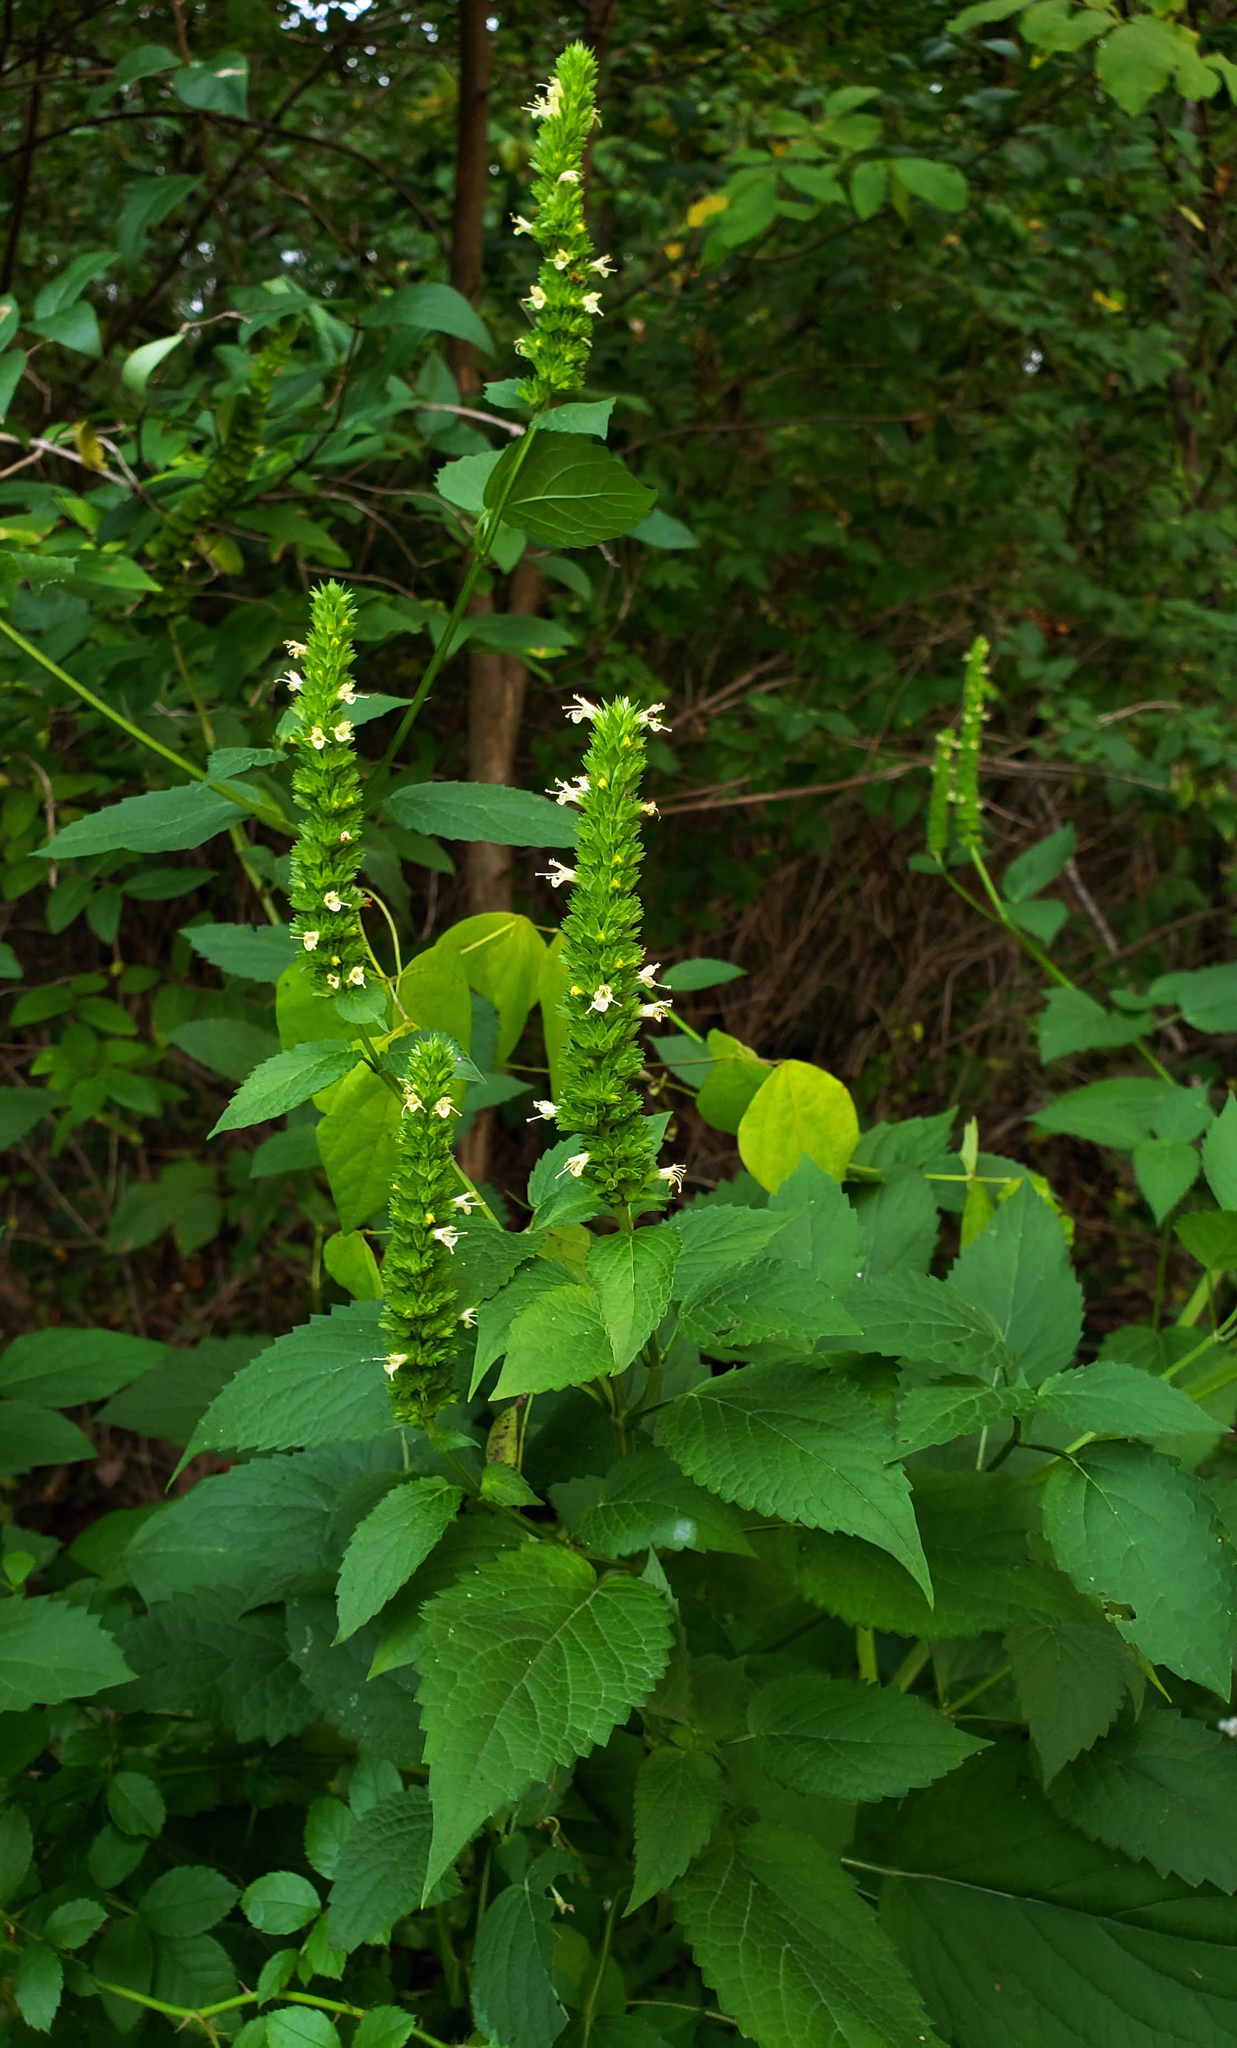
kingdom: Plantae
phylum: Tracheophyta
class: Magnoliopsida
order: Lamiales
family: Lamiaceae
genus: Agastache
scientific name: Agastache nepetoides
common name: Catnip giant hyssop
